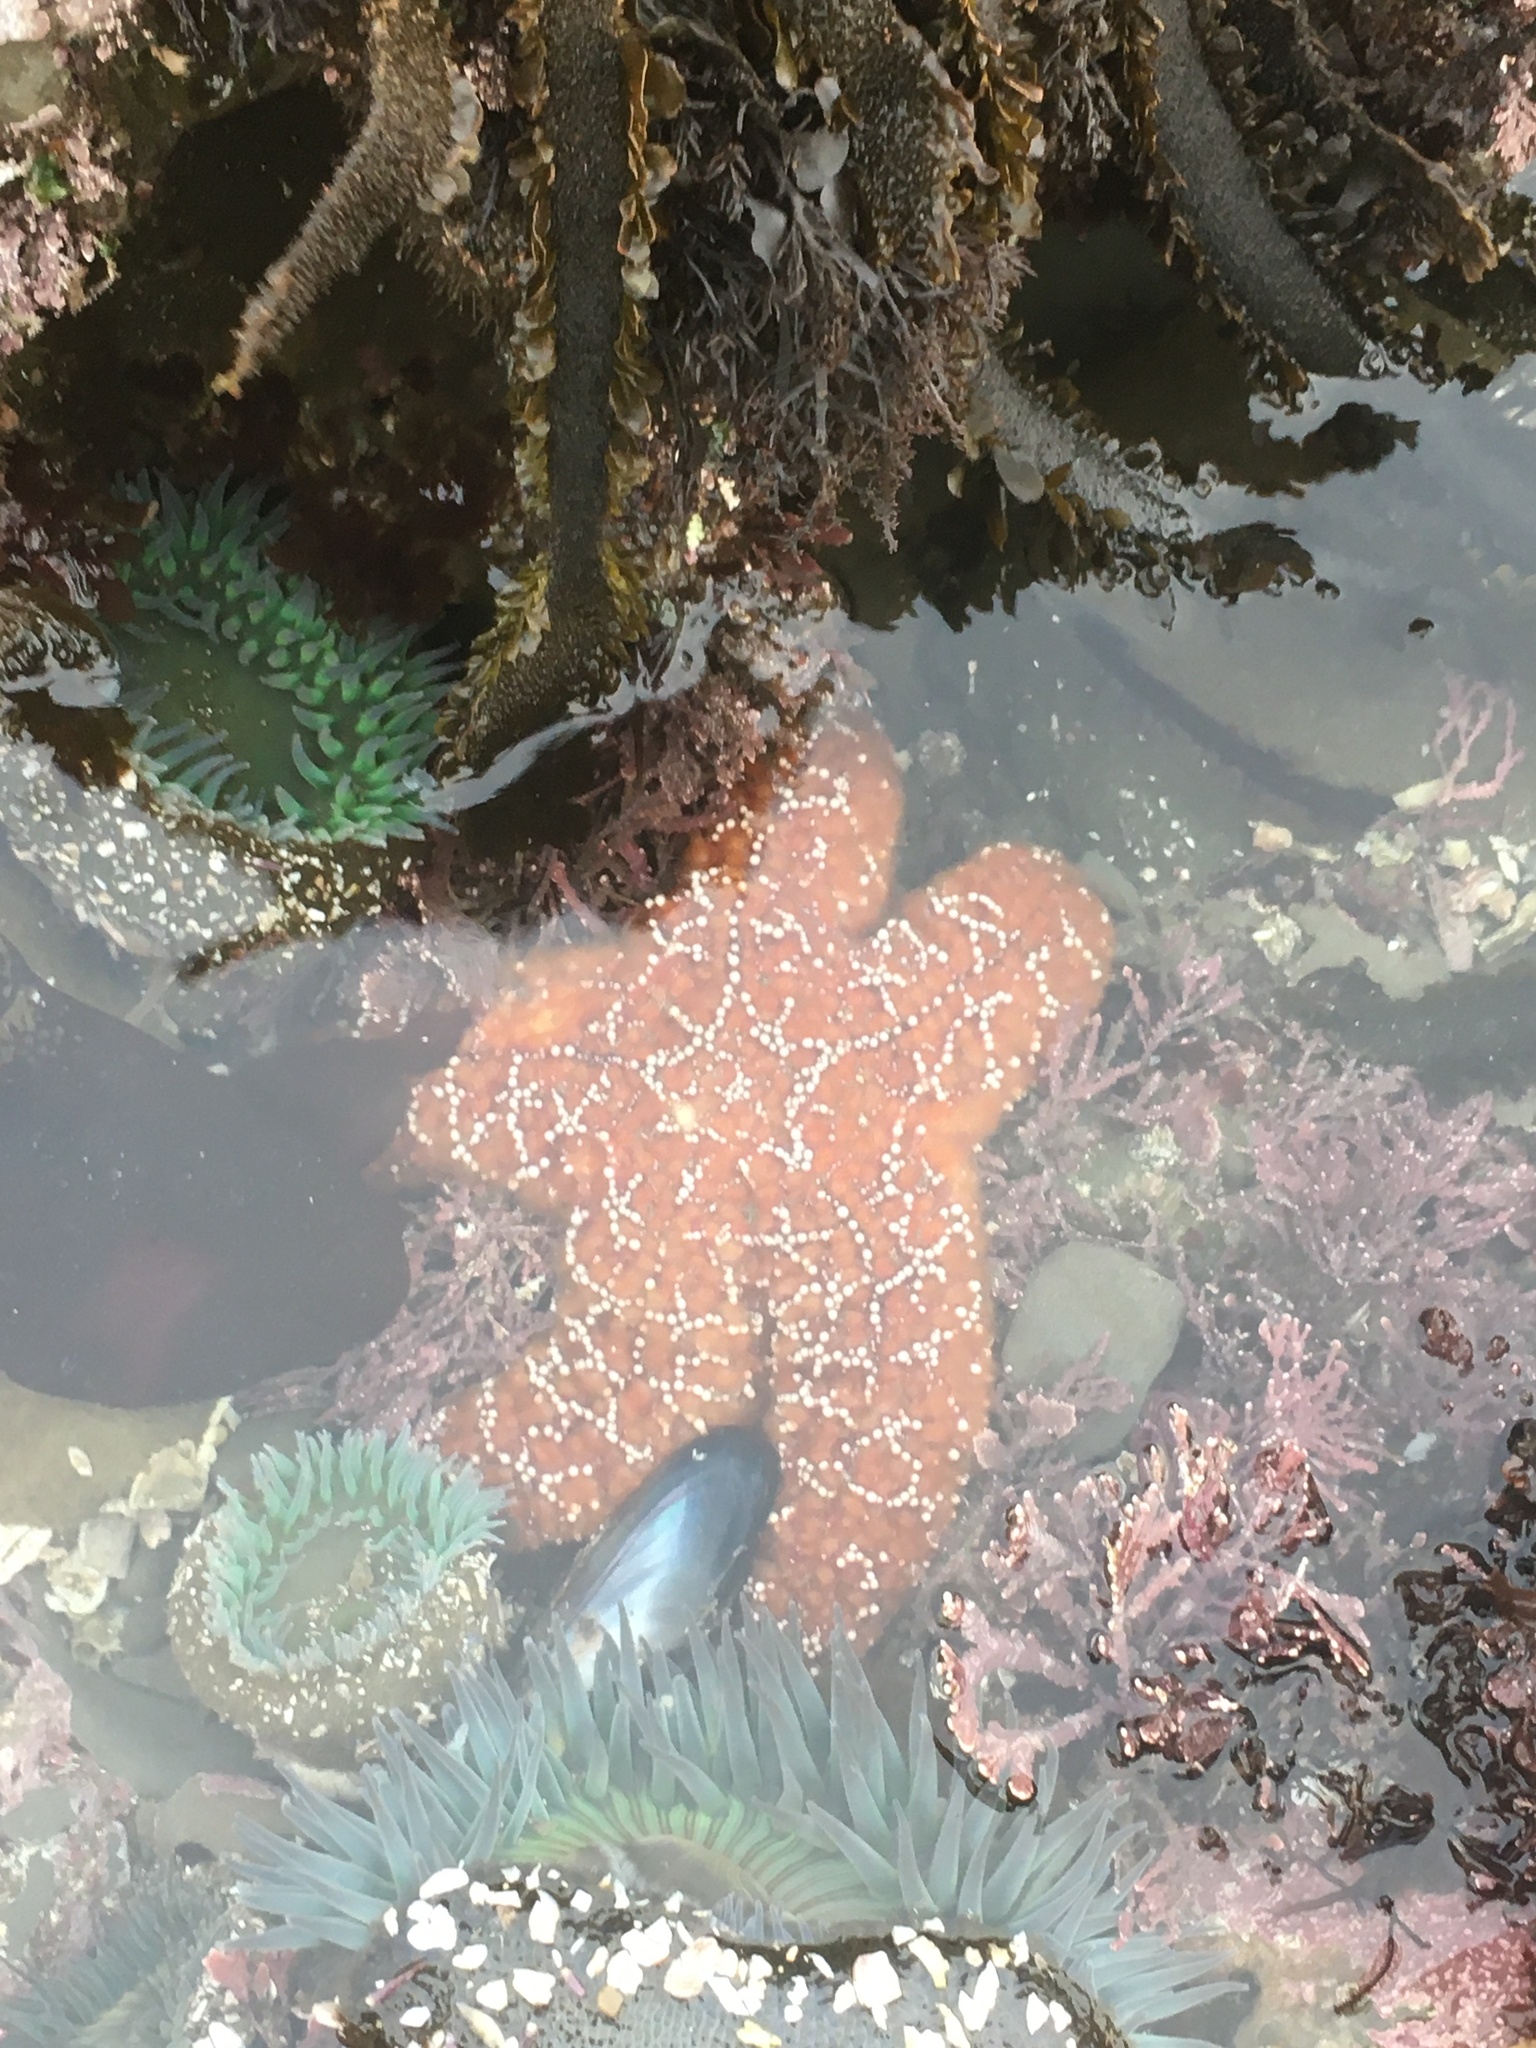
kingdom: Animalia
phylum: Echinodermata
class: Asteroidea
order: Forcipulatida
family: Asteriidae
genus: Pisaster
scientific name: Pisaster ochraceus
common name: Ochre stars
